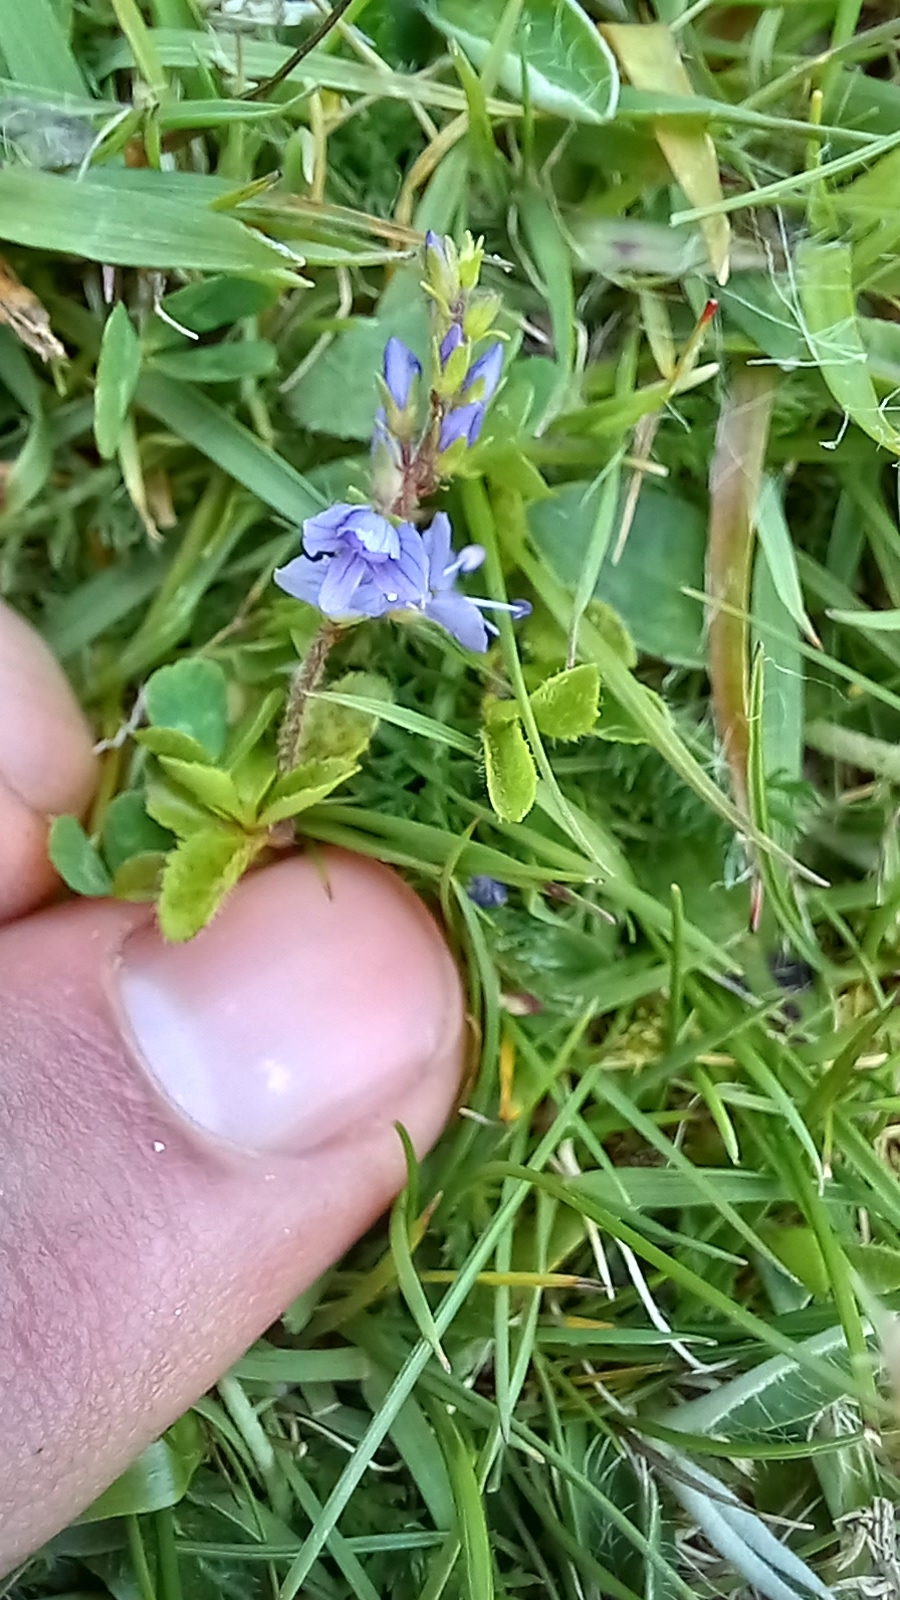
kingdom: Plantae
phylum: Tracheophyta
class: Magnoliopsida
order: Lamiales
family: Plantaginaceae
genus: Veronica
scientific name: Veronica officinalis
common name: Common speedwell
